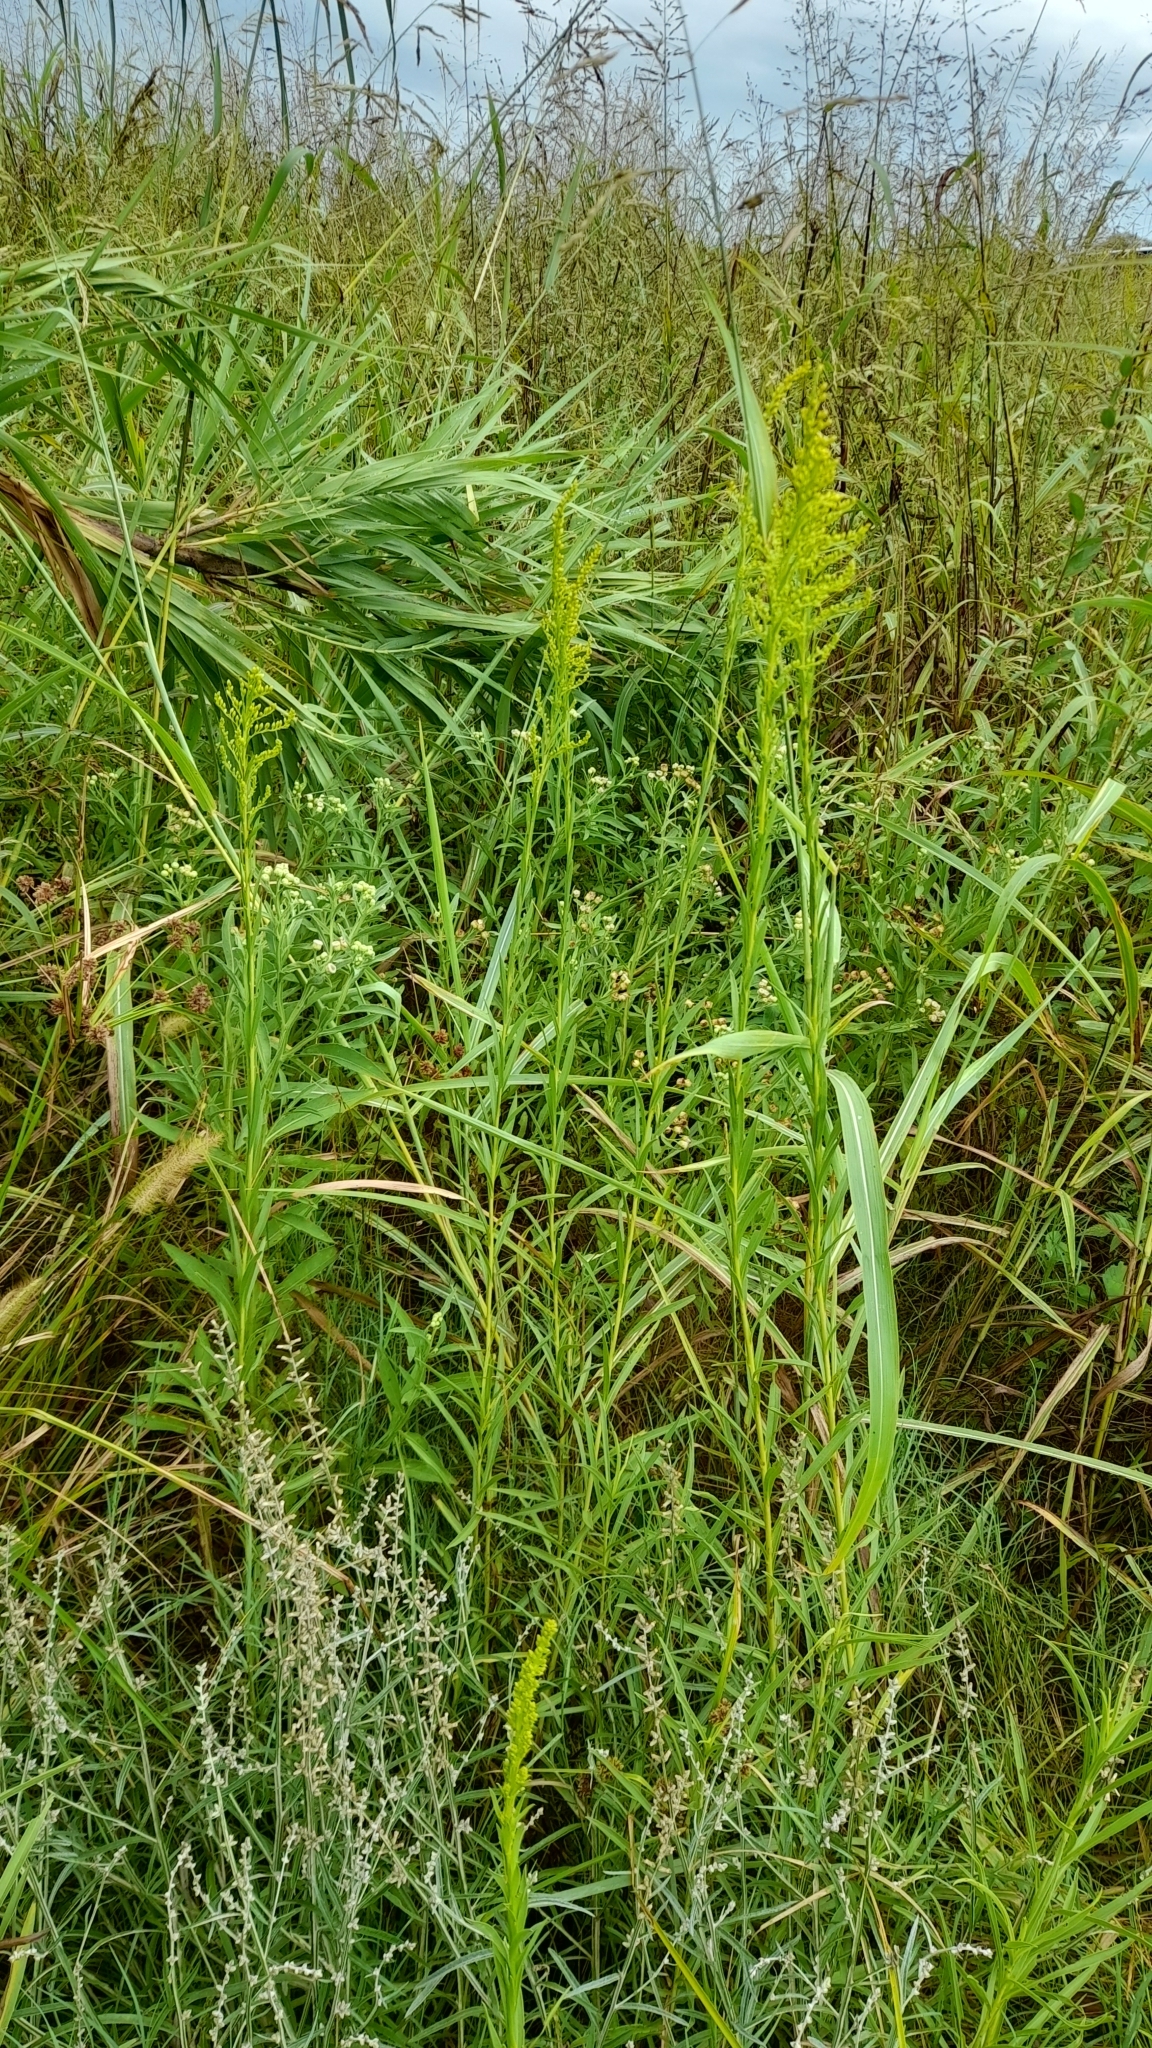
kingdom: Plantae
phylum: Tracheophyta
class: Magnoliopsida
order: Asterales
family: Asteraceae
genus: Solidago
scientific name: Solidago chilensis
